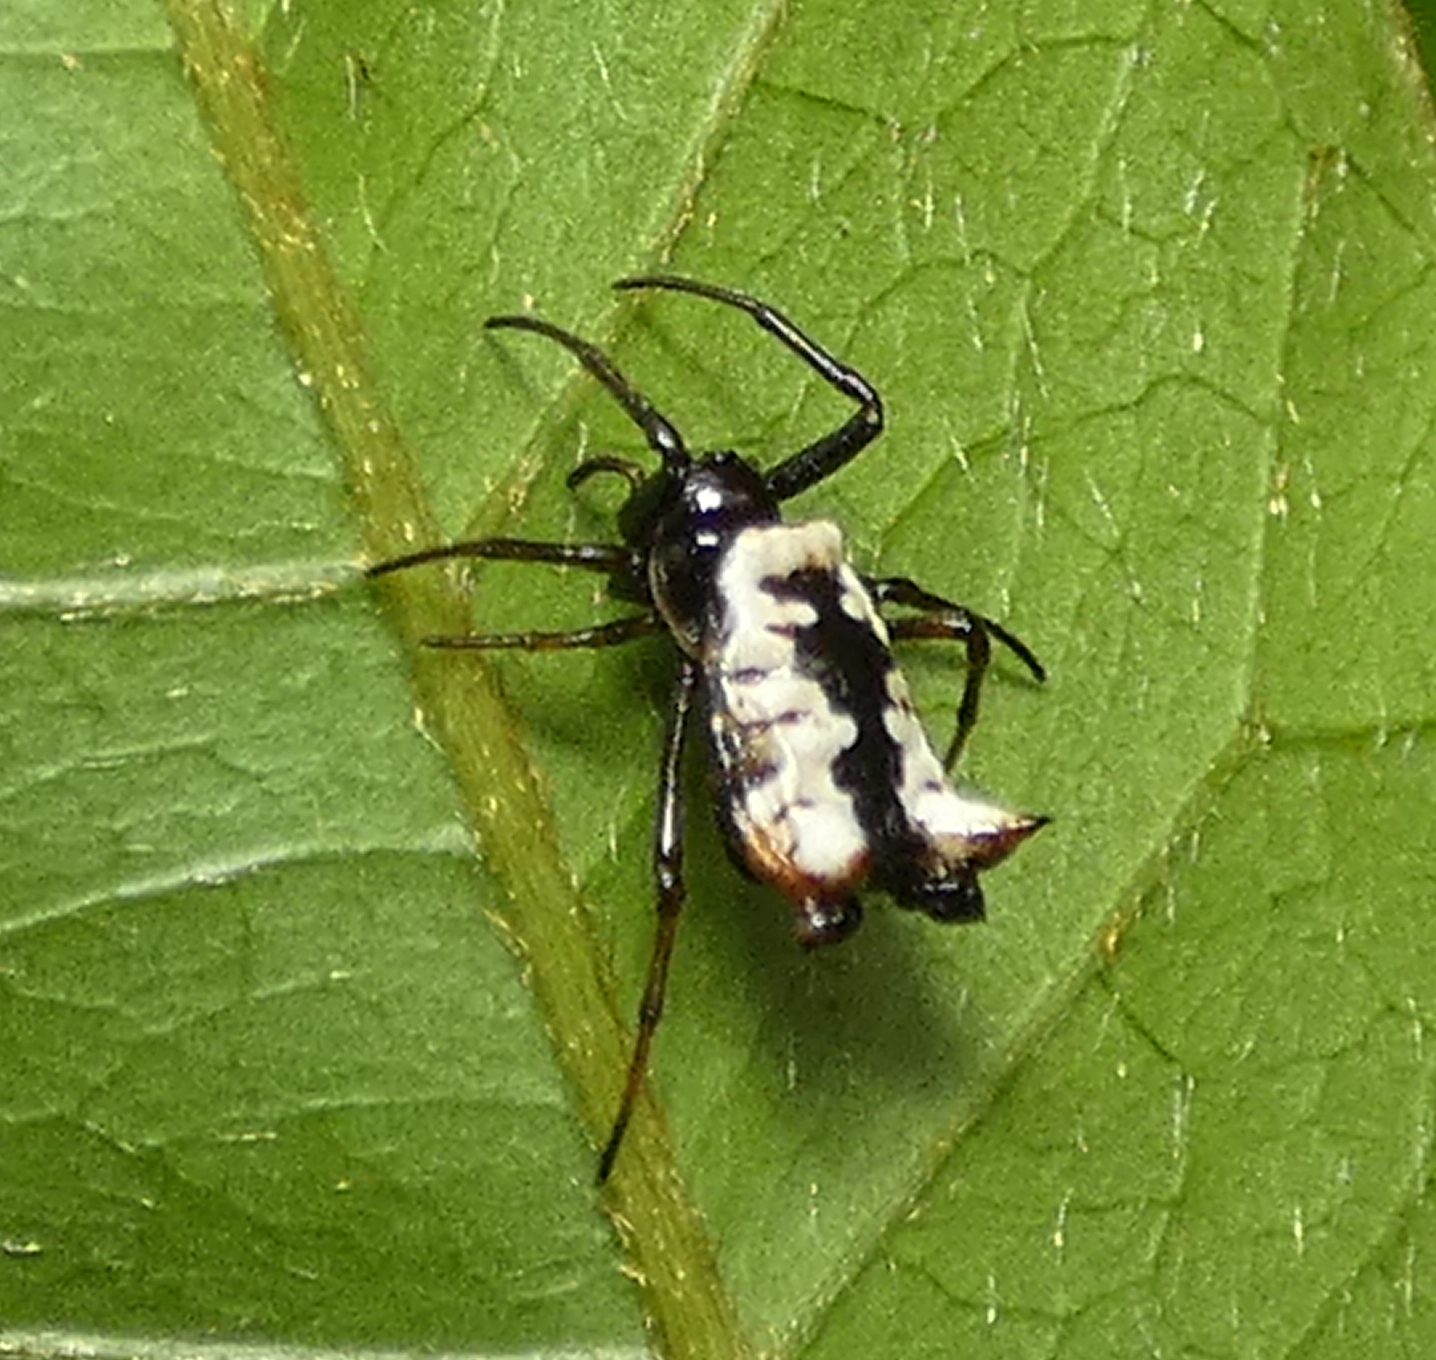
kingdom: Animalia
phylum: Arthropoda
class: Arachnida
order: Araneae
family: Araneidae
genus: Micrathena
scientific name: Micrathena patruelis
